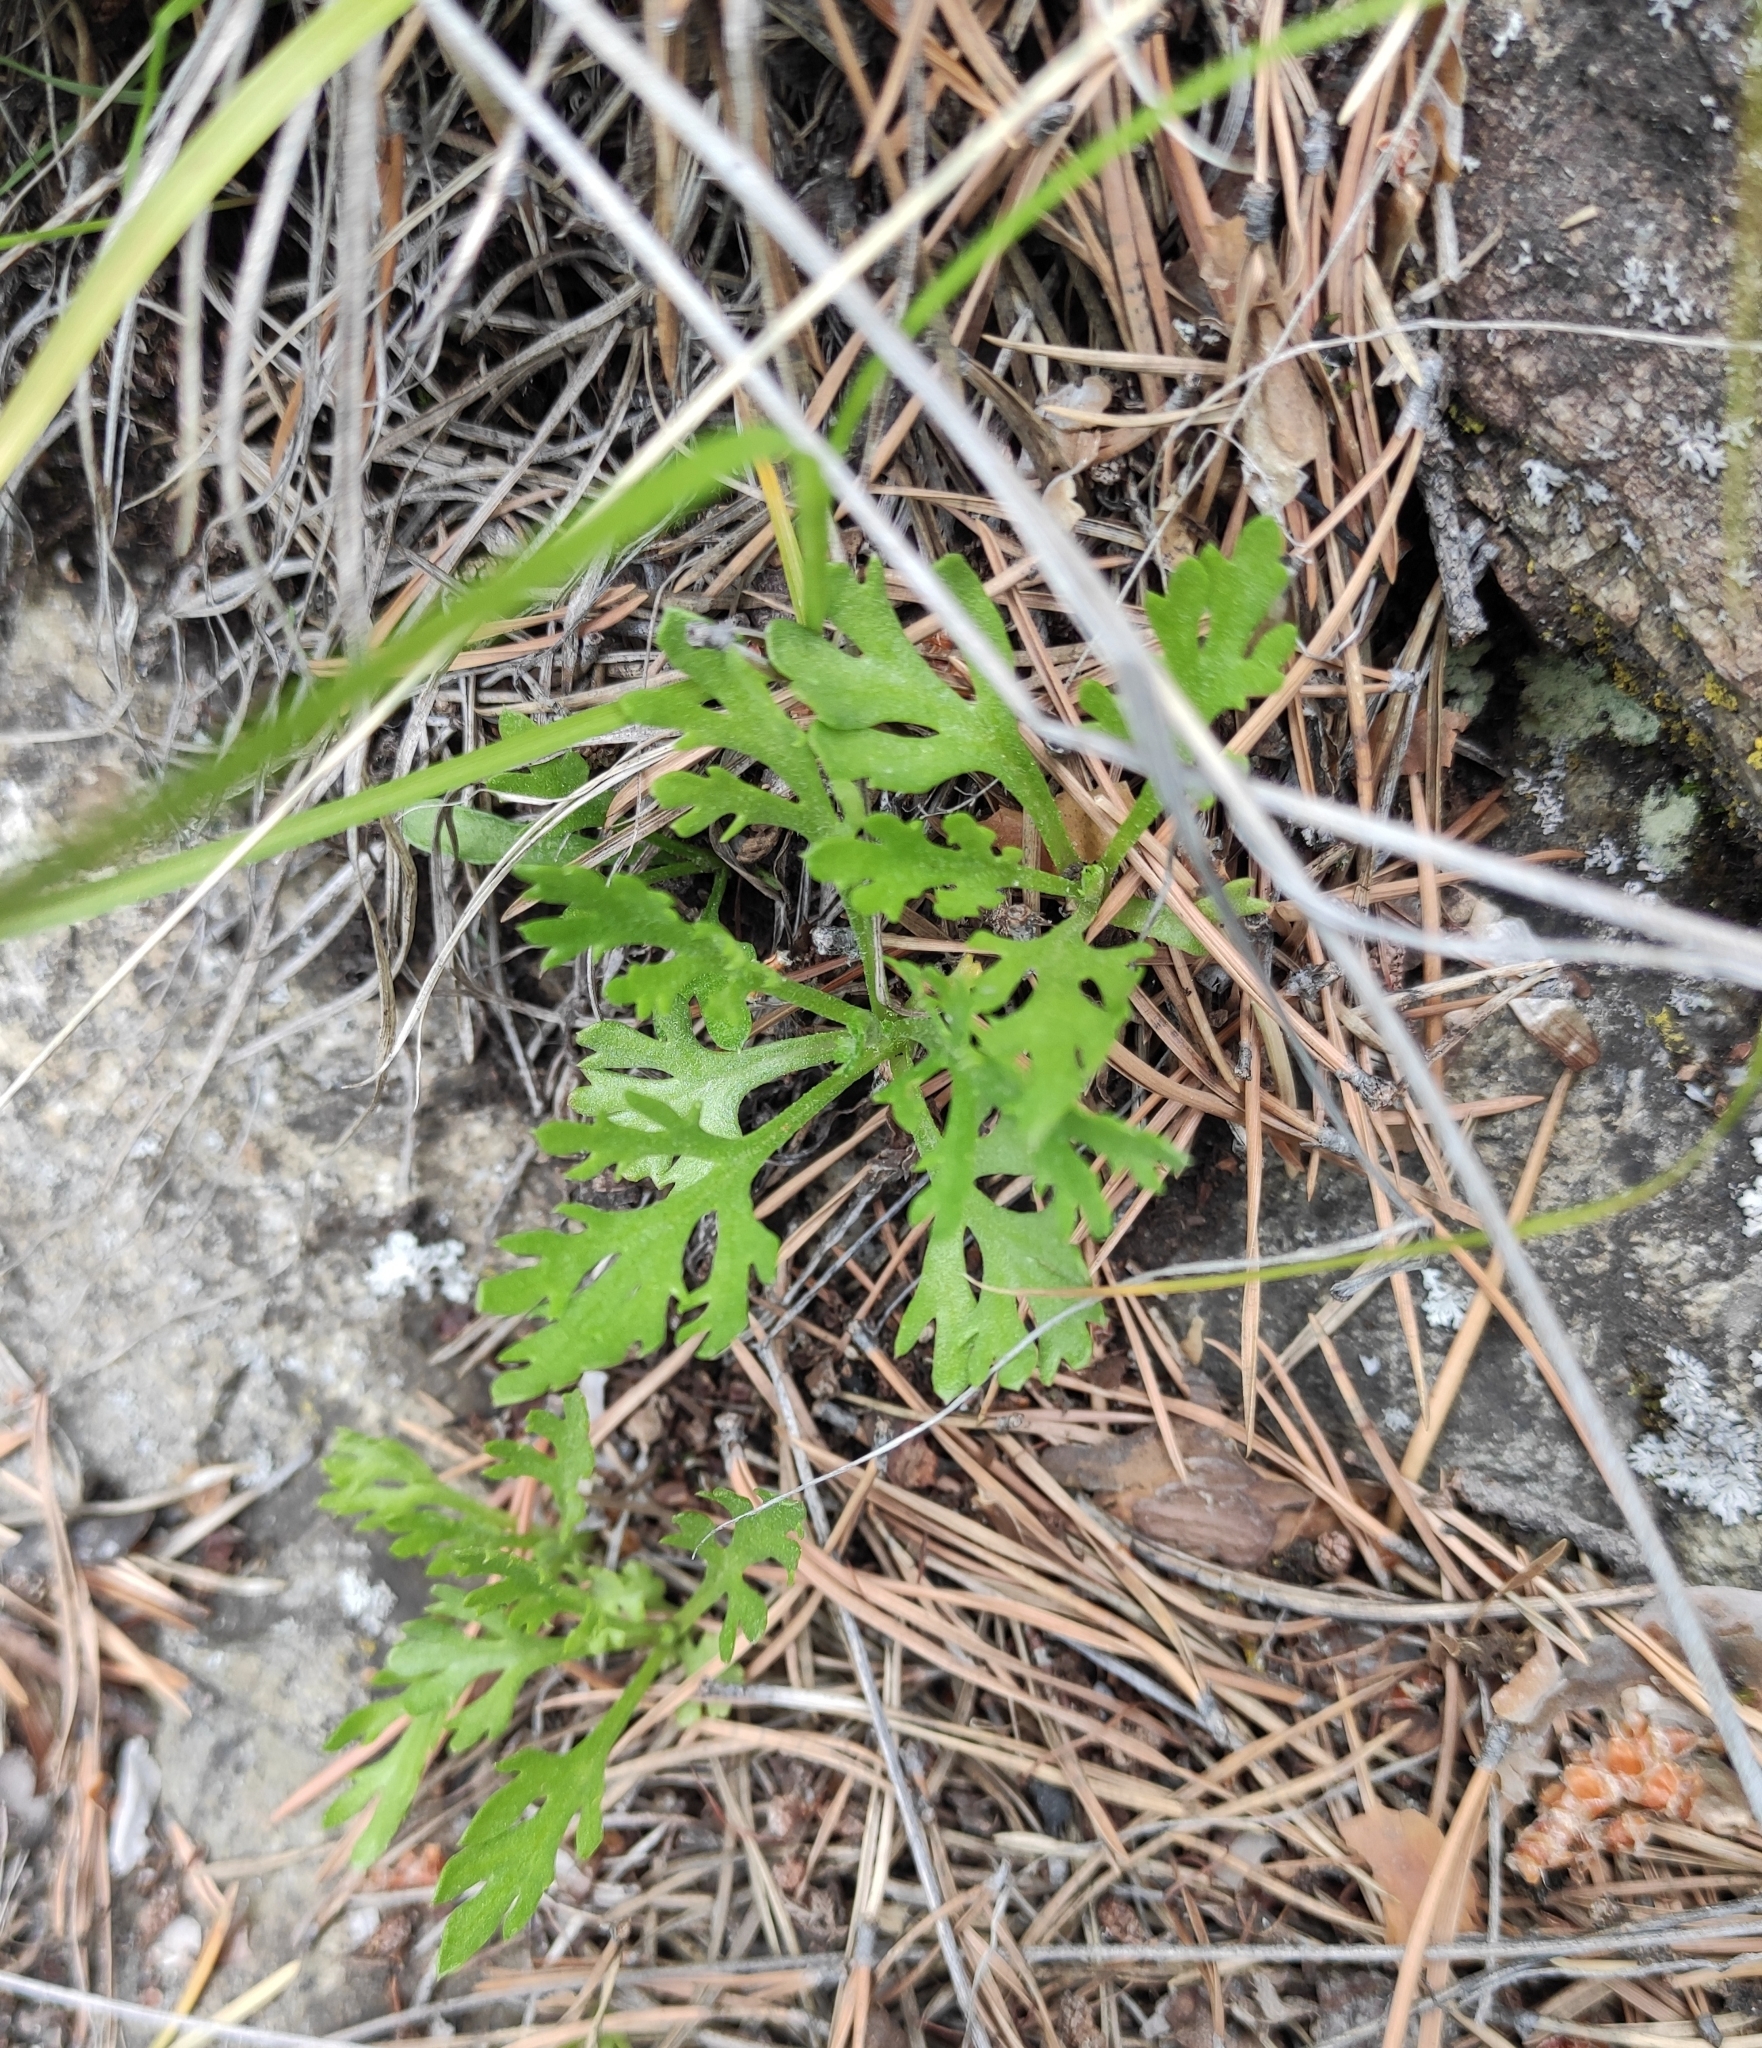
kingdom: Plantae
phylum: Tracheophyta
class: Magnoliopsida
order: Asterales
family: Asteraceae
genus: Chrysanthemum
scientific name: Chrysanthemum zawadzkii
